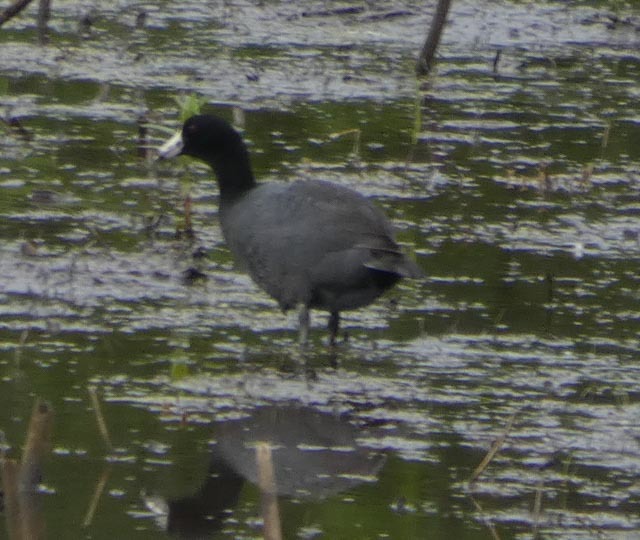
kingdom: Animalia
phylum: Chordata
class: Aves
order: Gruiformes
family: Rallidae
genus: Fulica
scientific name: Fulica americana
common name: American coot
